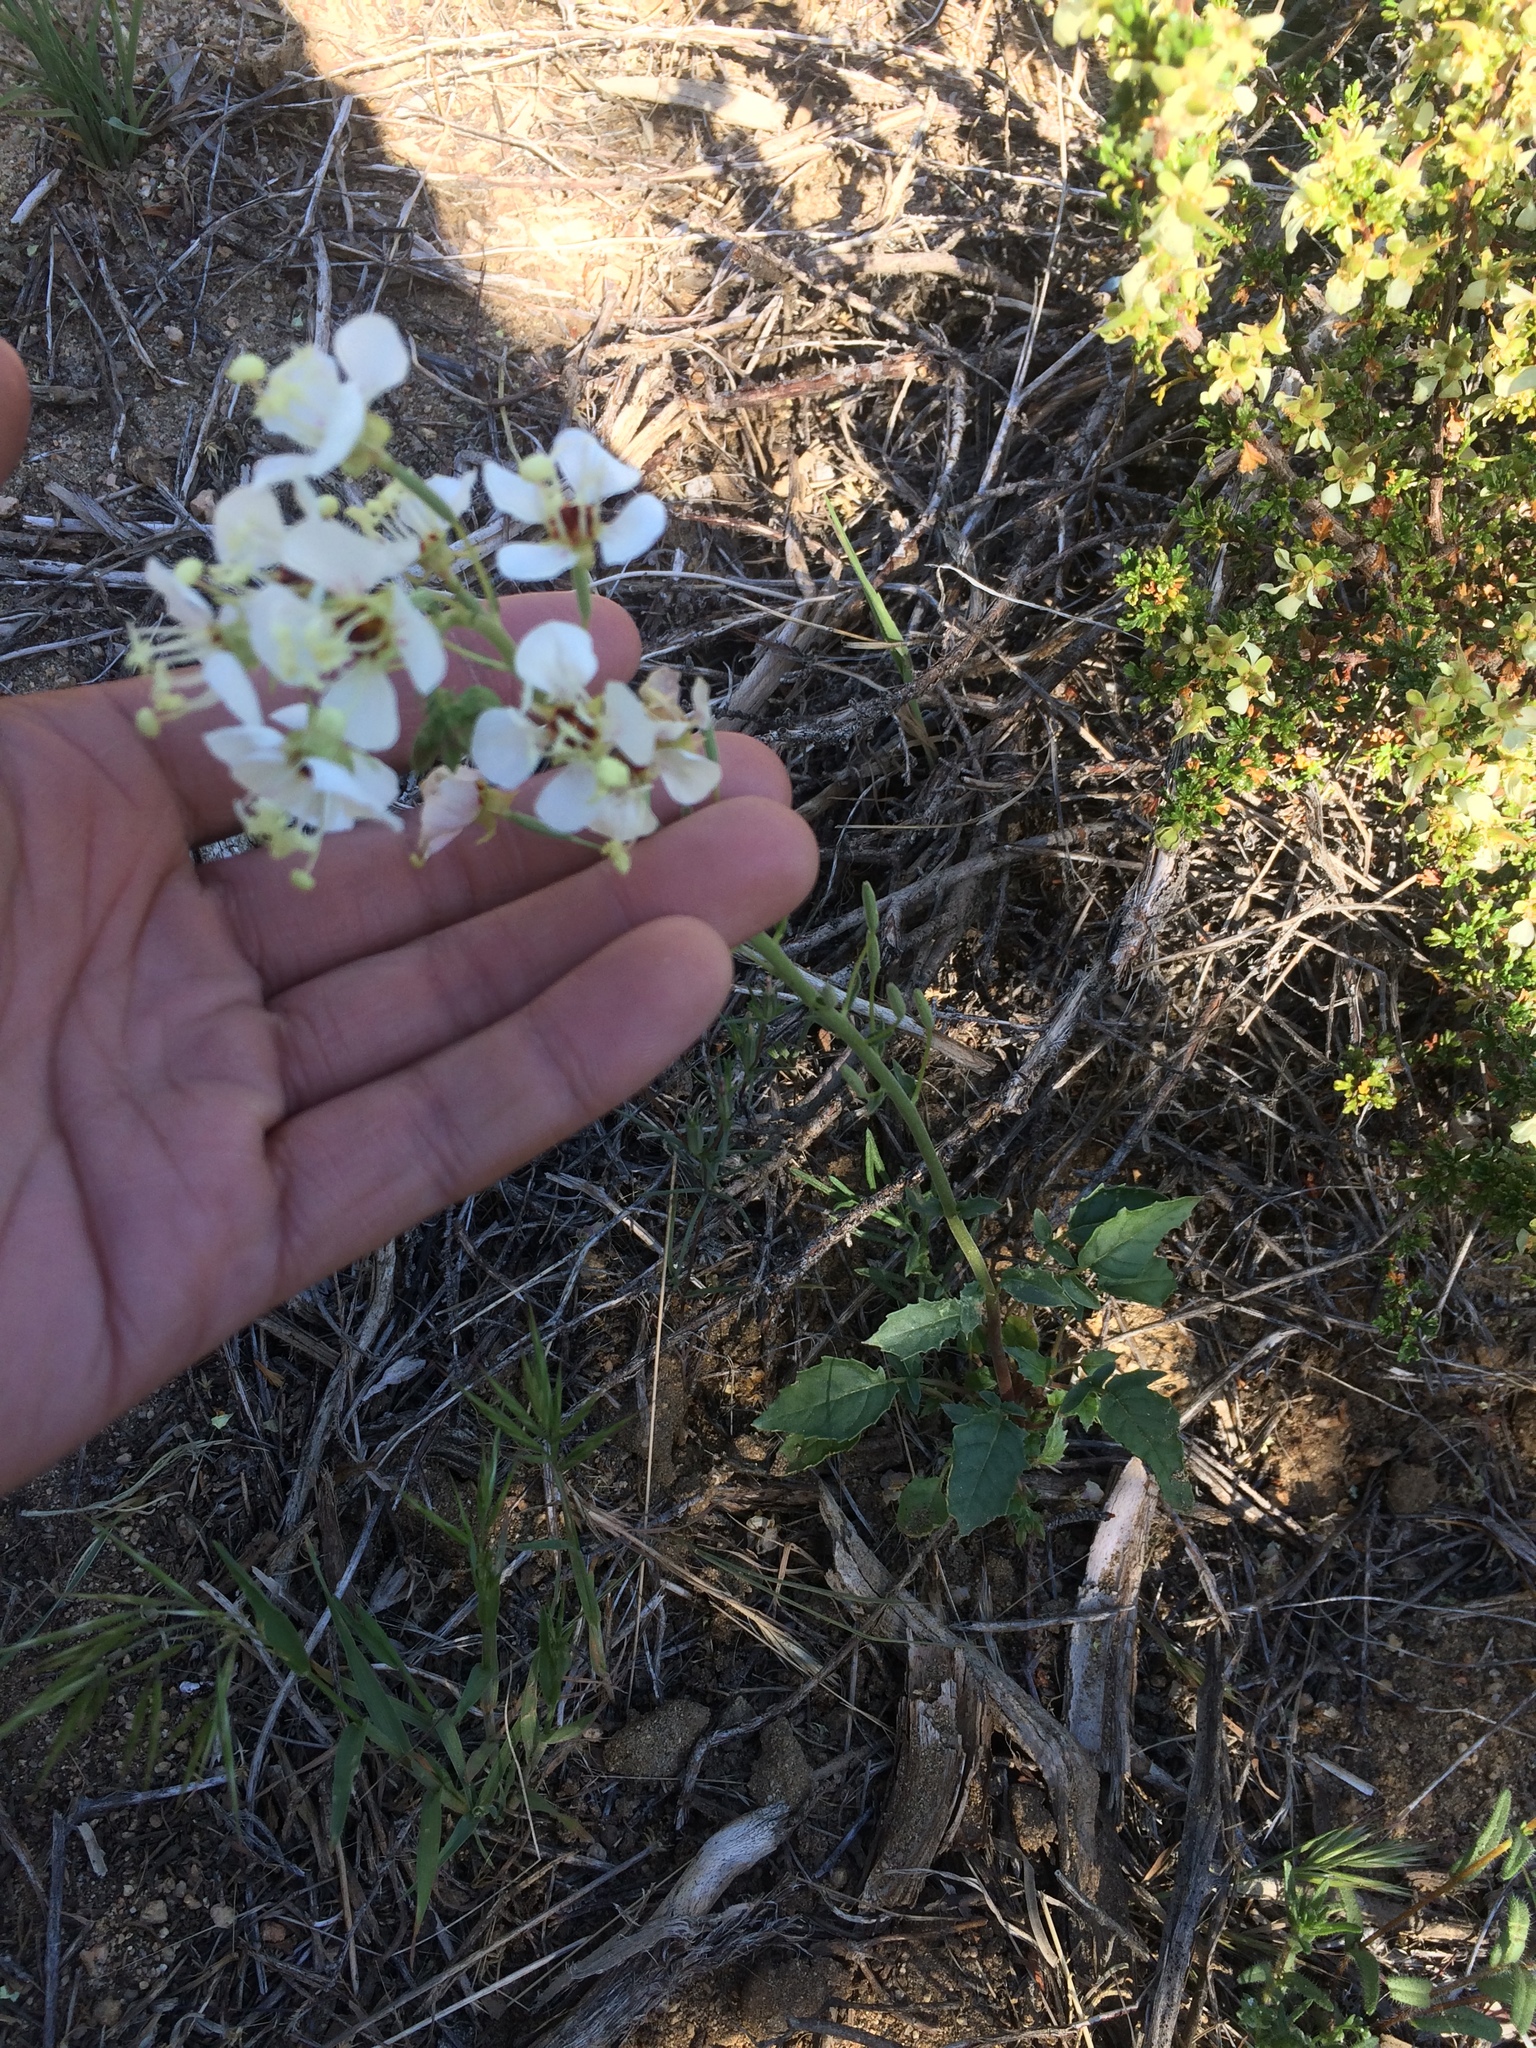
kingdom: Plantae
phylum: Tracheophyta
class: Magnoliopsida
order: Myrtales
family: Onagraceae
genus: Chylismia
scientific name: Chylismia claviformis
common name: Browneyes
